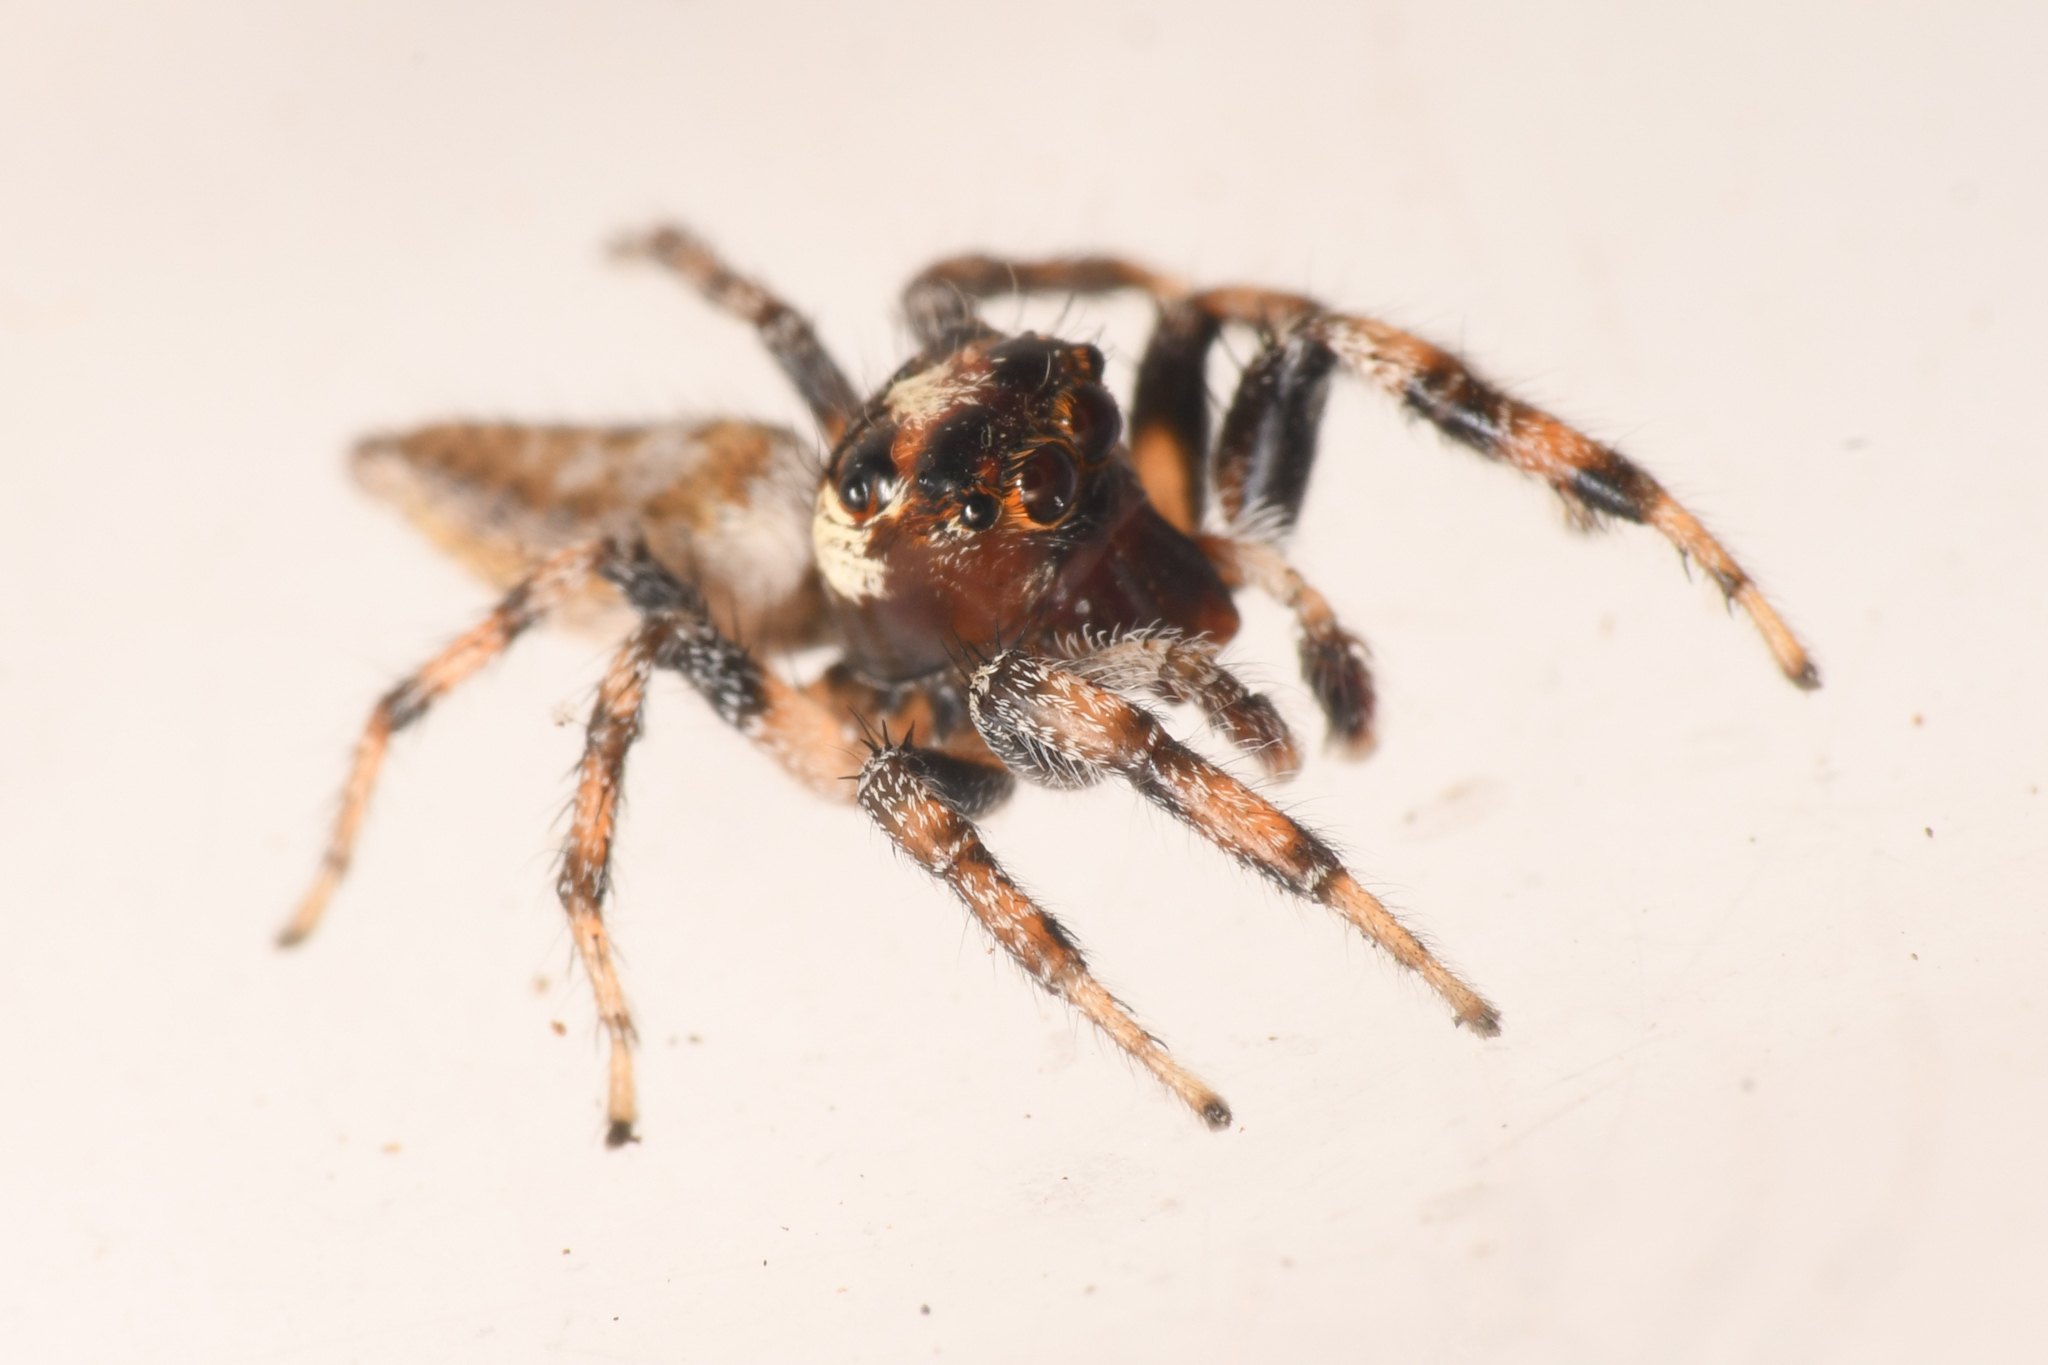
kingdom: Animalia
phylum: Arthropoda
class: Arachnida
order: Araneae
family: Salticidae
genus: Colonus
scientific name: Colonus hesperus
